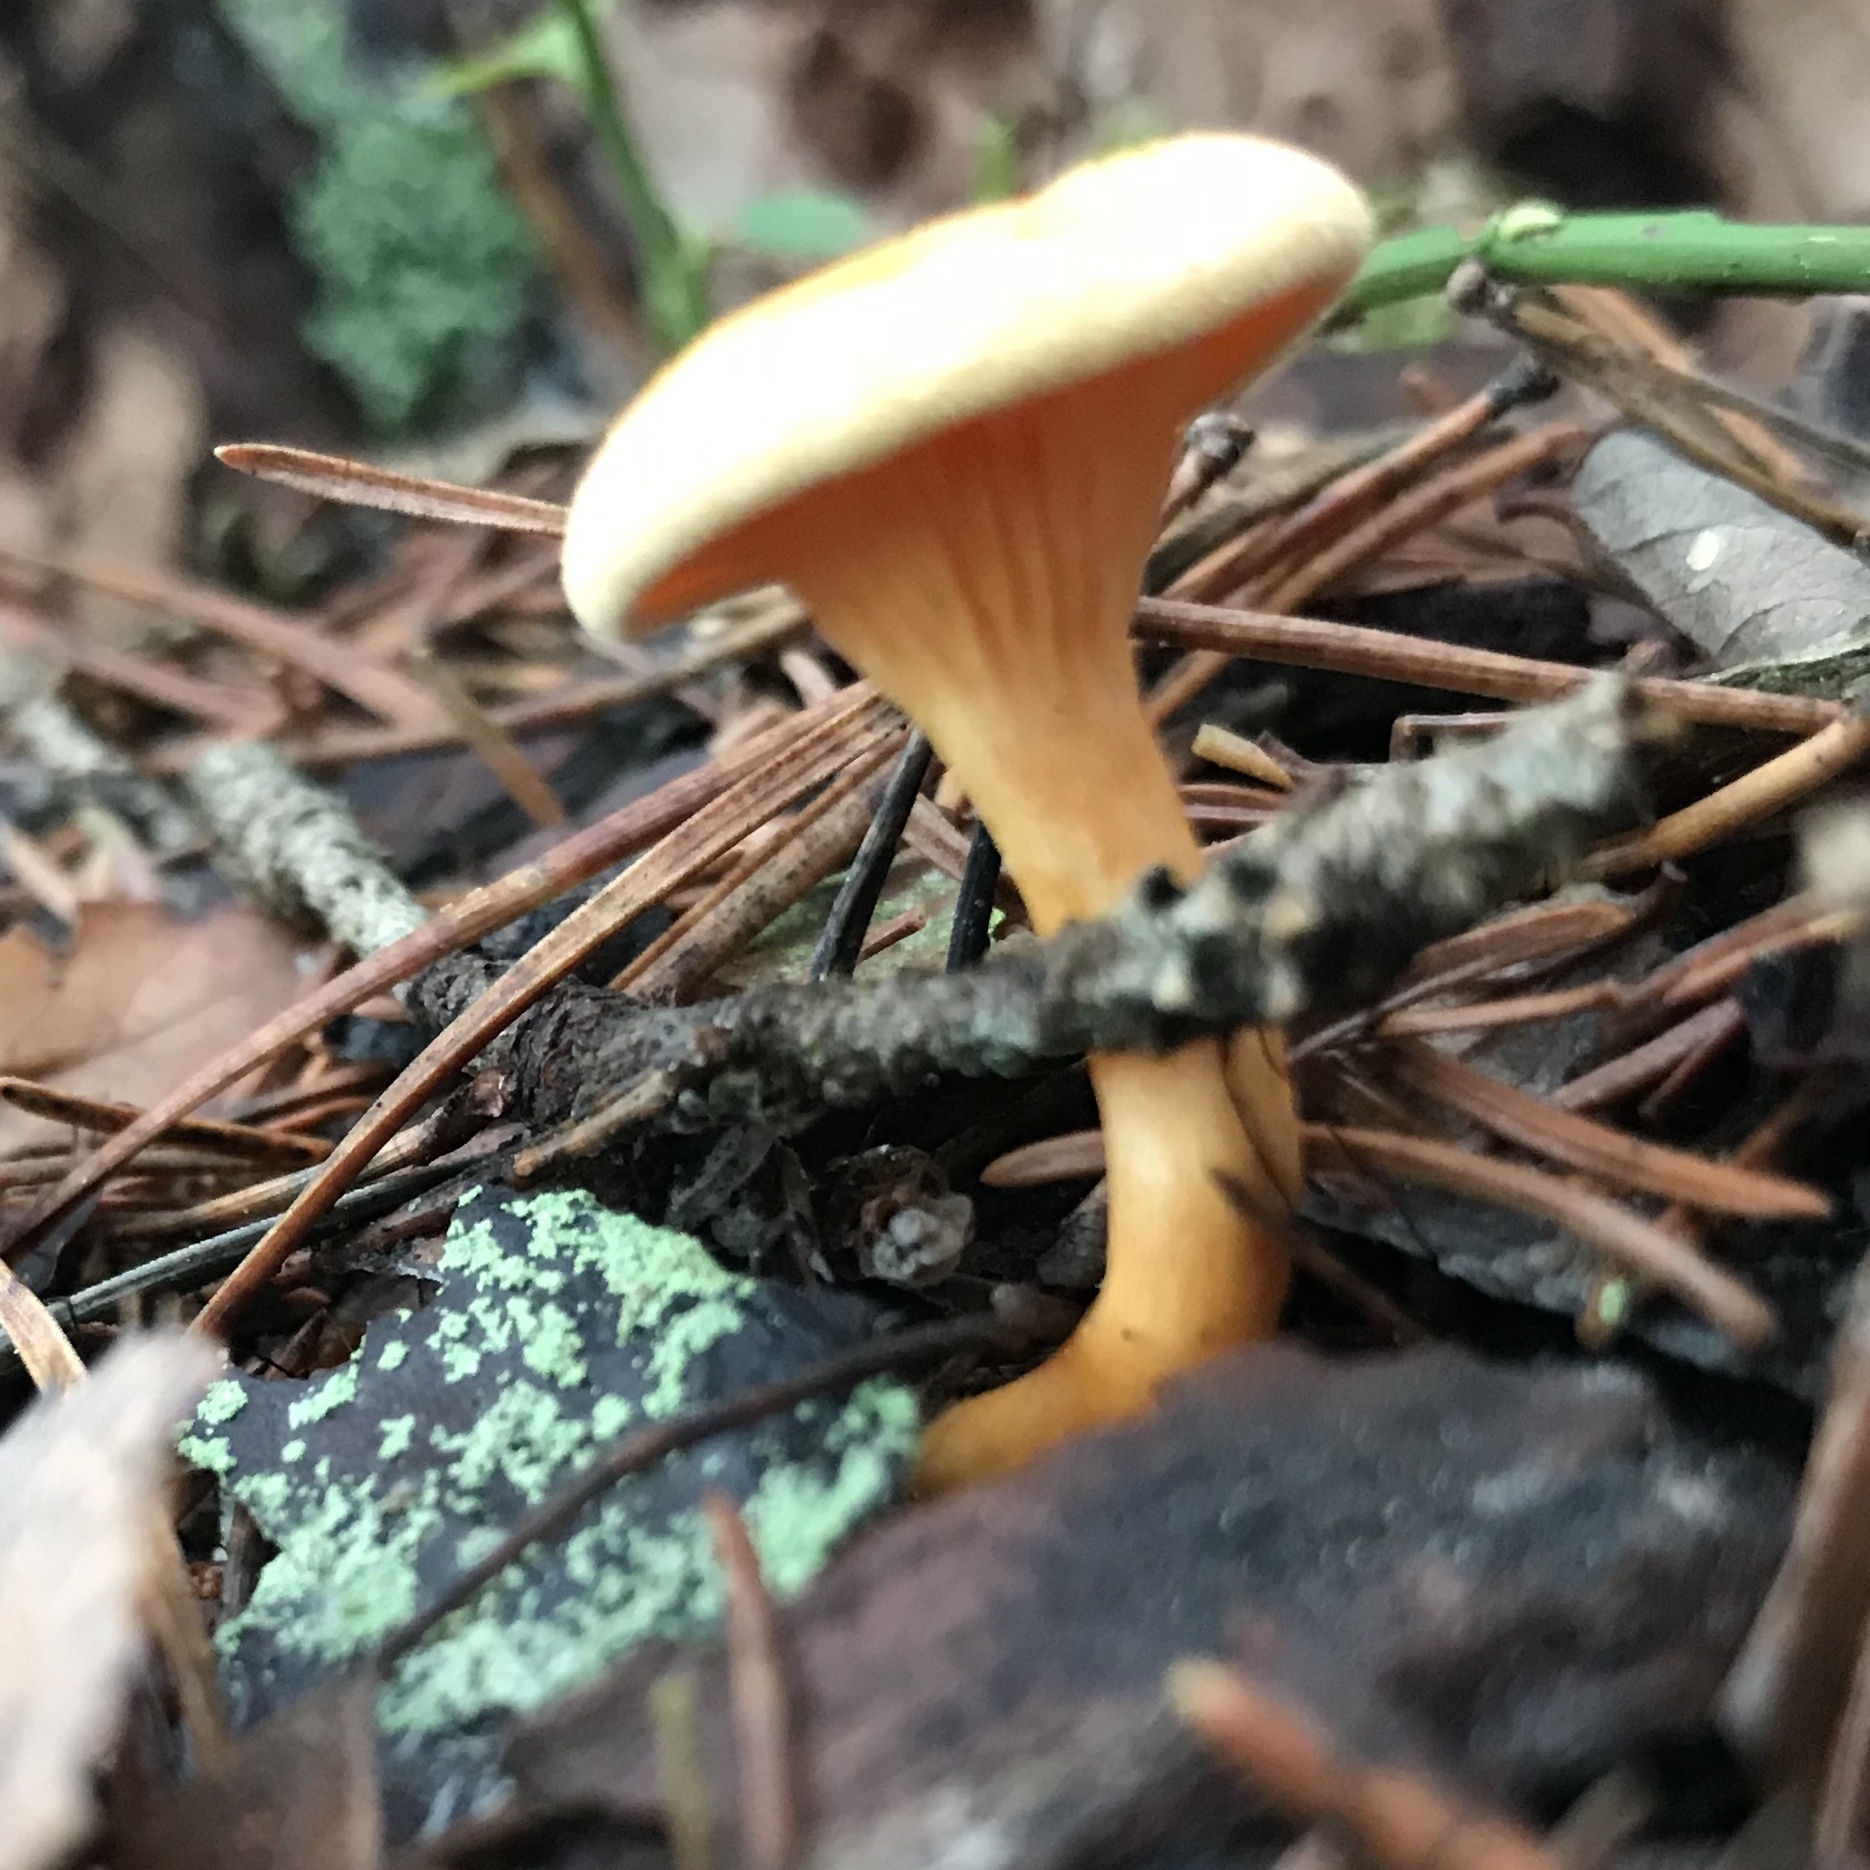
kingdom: Fungi
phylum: Basidiomycota
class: Agaricomycetes
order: Boletales
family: Hygrophoropsidaceae
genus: Hygrophoropsis
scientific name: Hygrophoropsis aurantiaca
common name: False chanterelle
